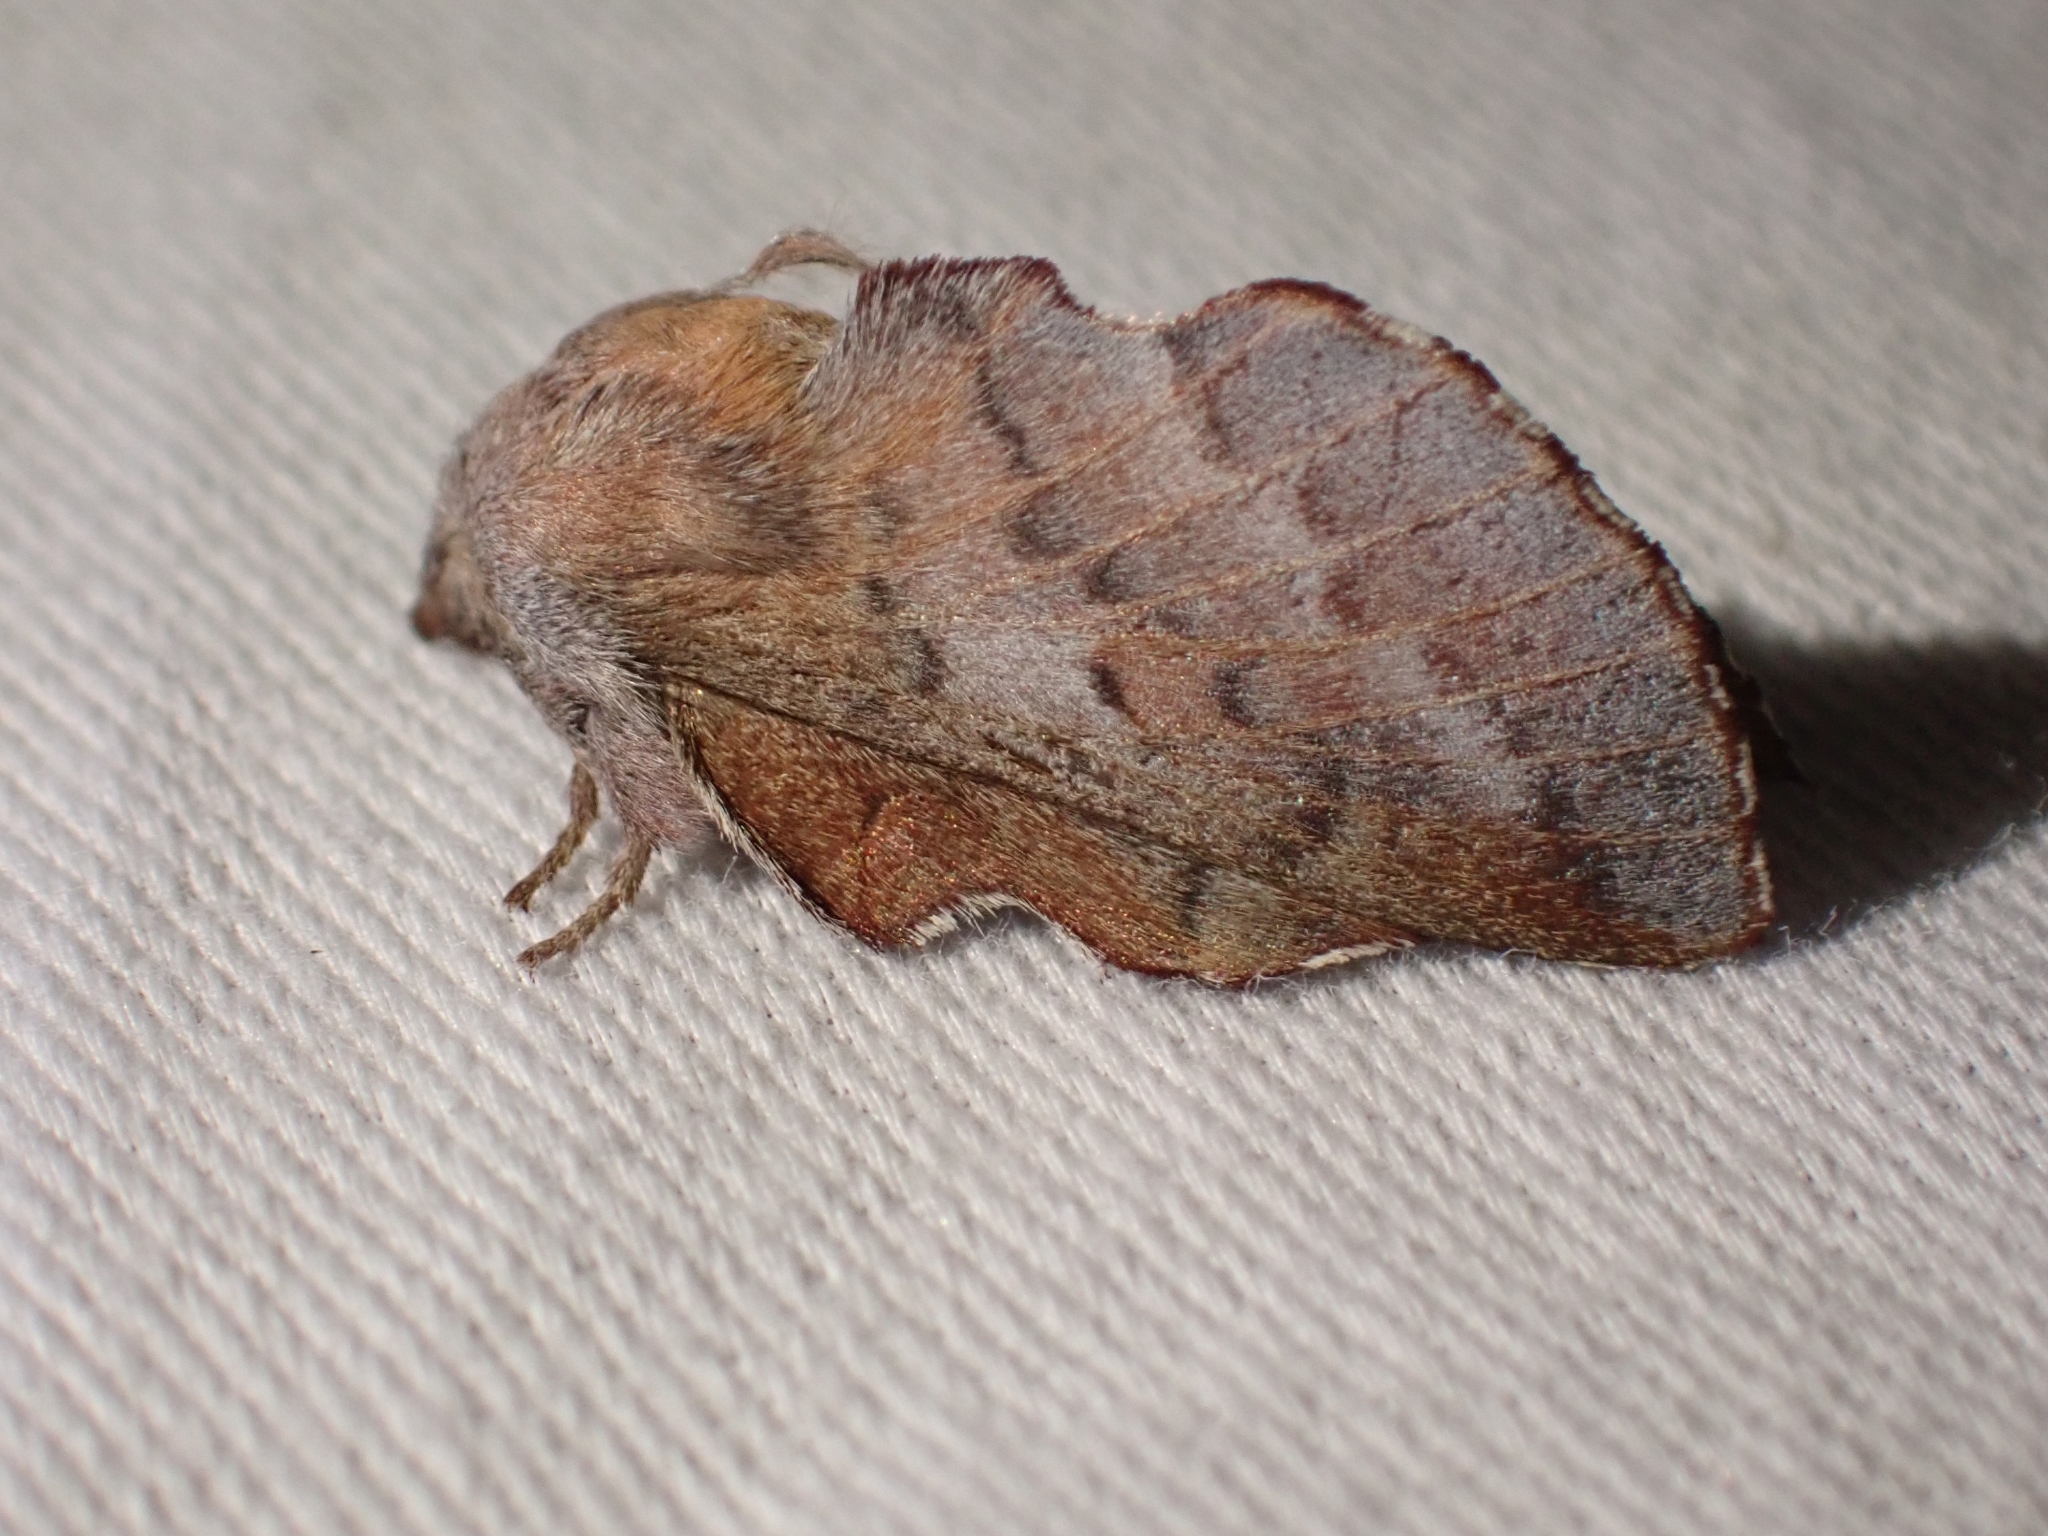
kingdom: Animalia
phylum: Arthropoda
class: Insecta
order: Lepidoptera
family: Lasiocampidae
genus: Phyllodesma
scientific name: Phyllodesma americana
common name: American lappet moth
